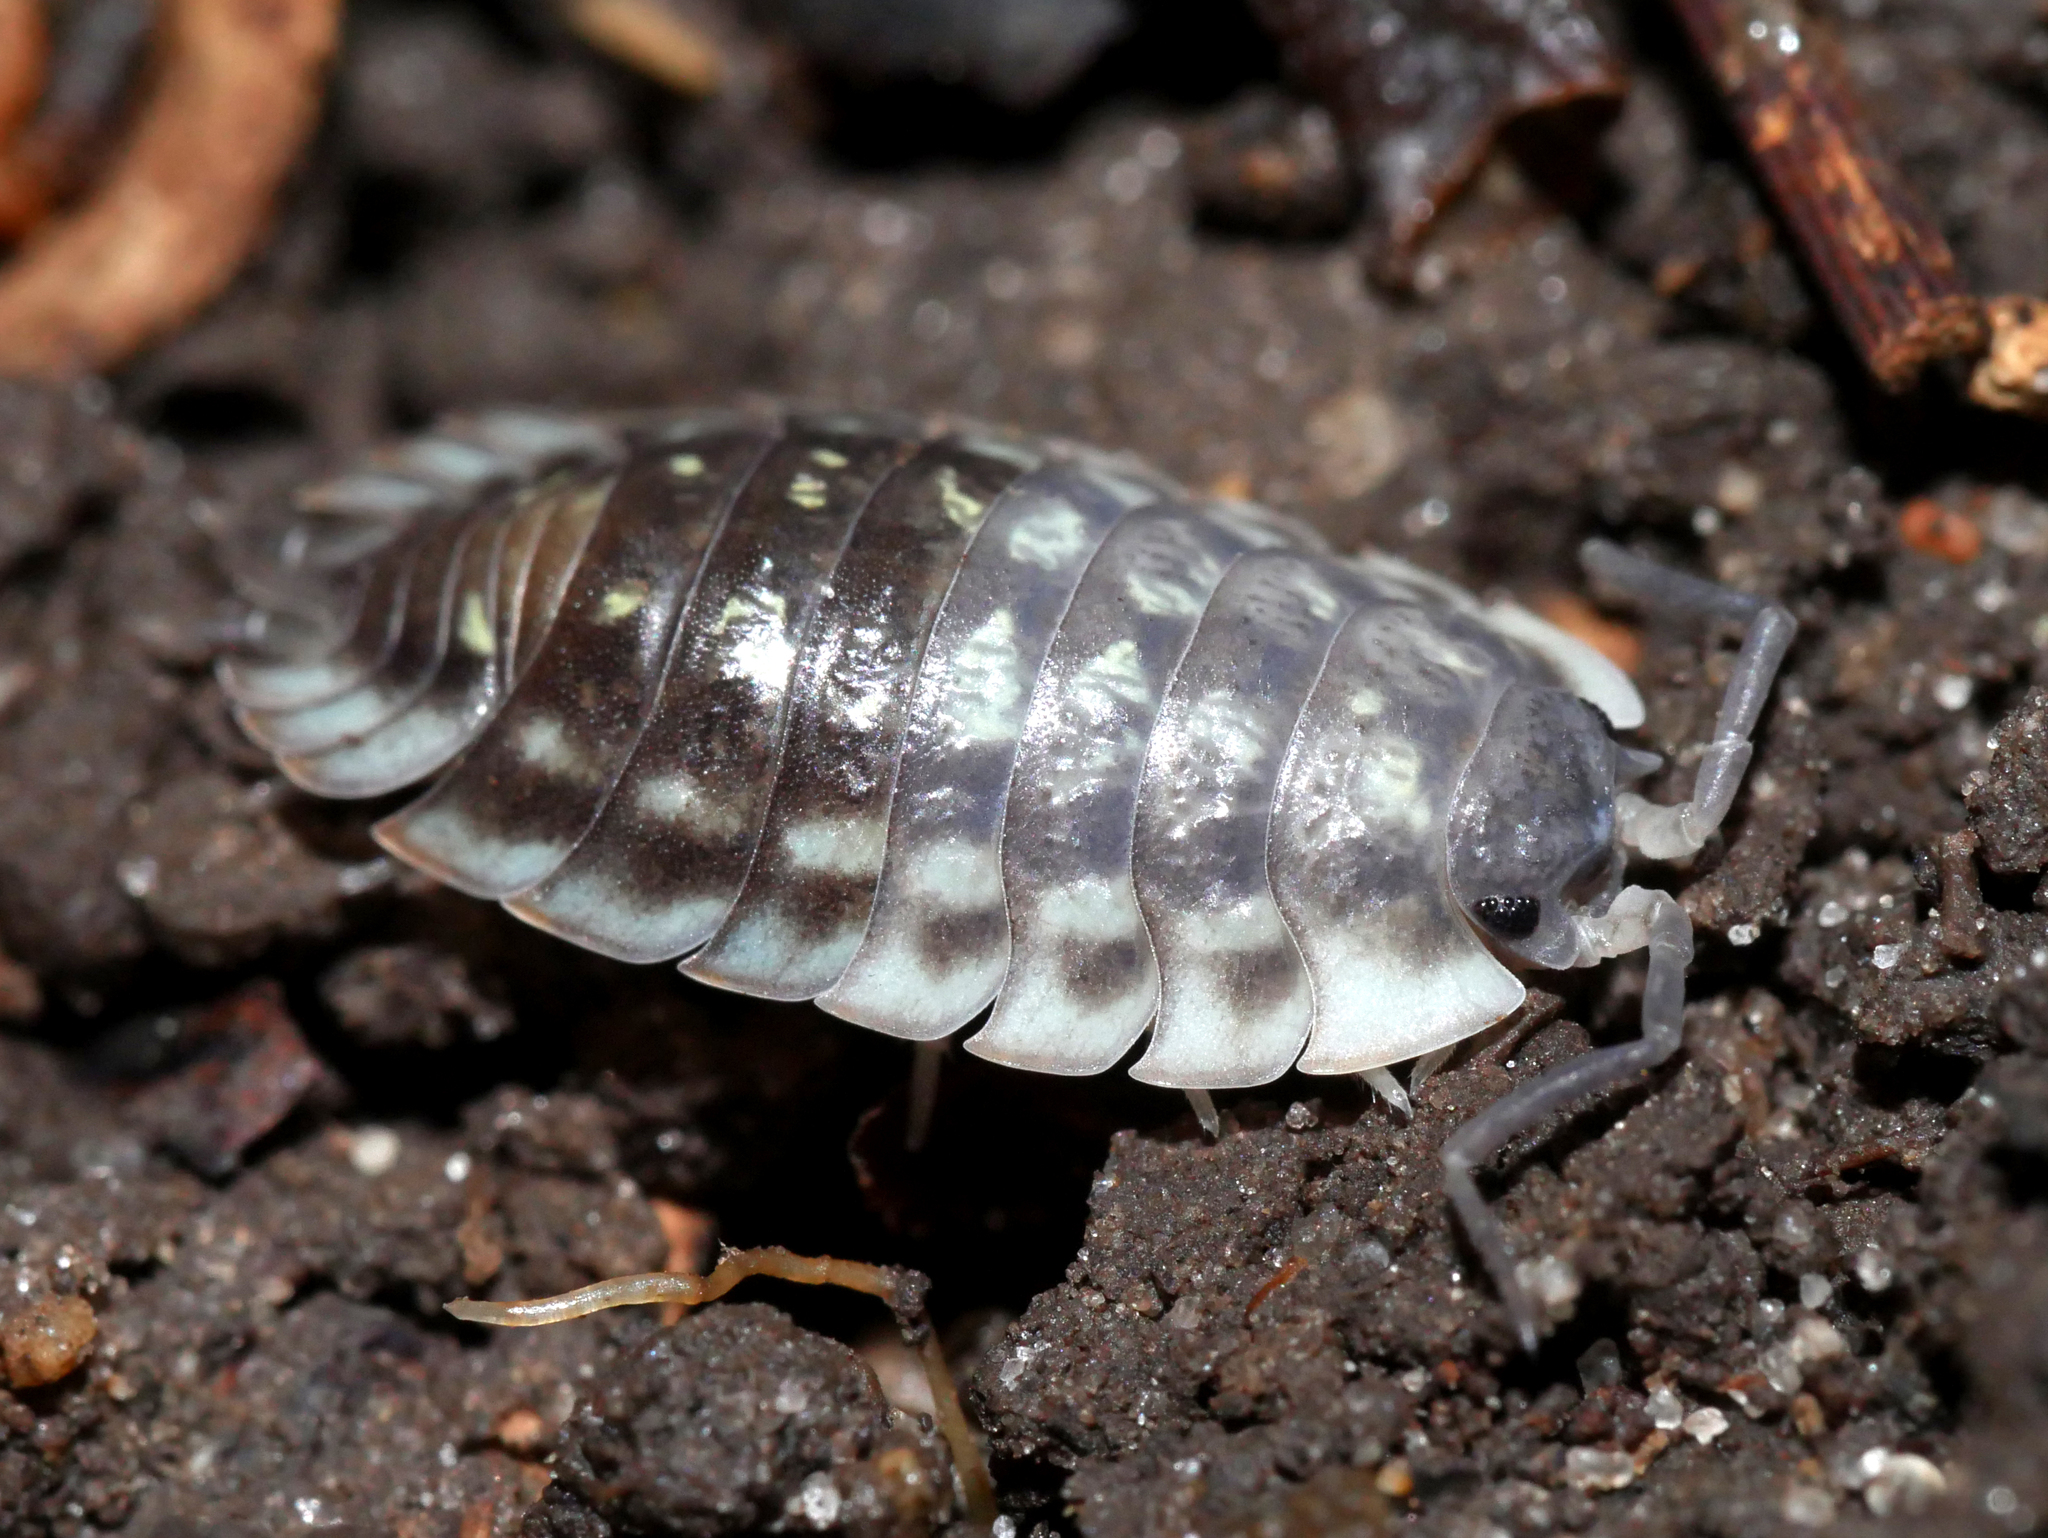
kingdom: Animalia
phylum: Arthropoda
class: Malacostraca
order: Isopoda
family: Oniscidae
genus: Oniscus
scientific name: Oniscus asellus
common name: Common shiny woodlouse
